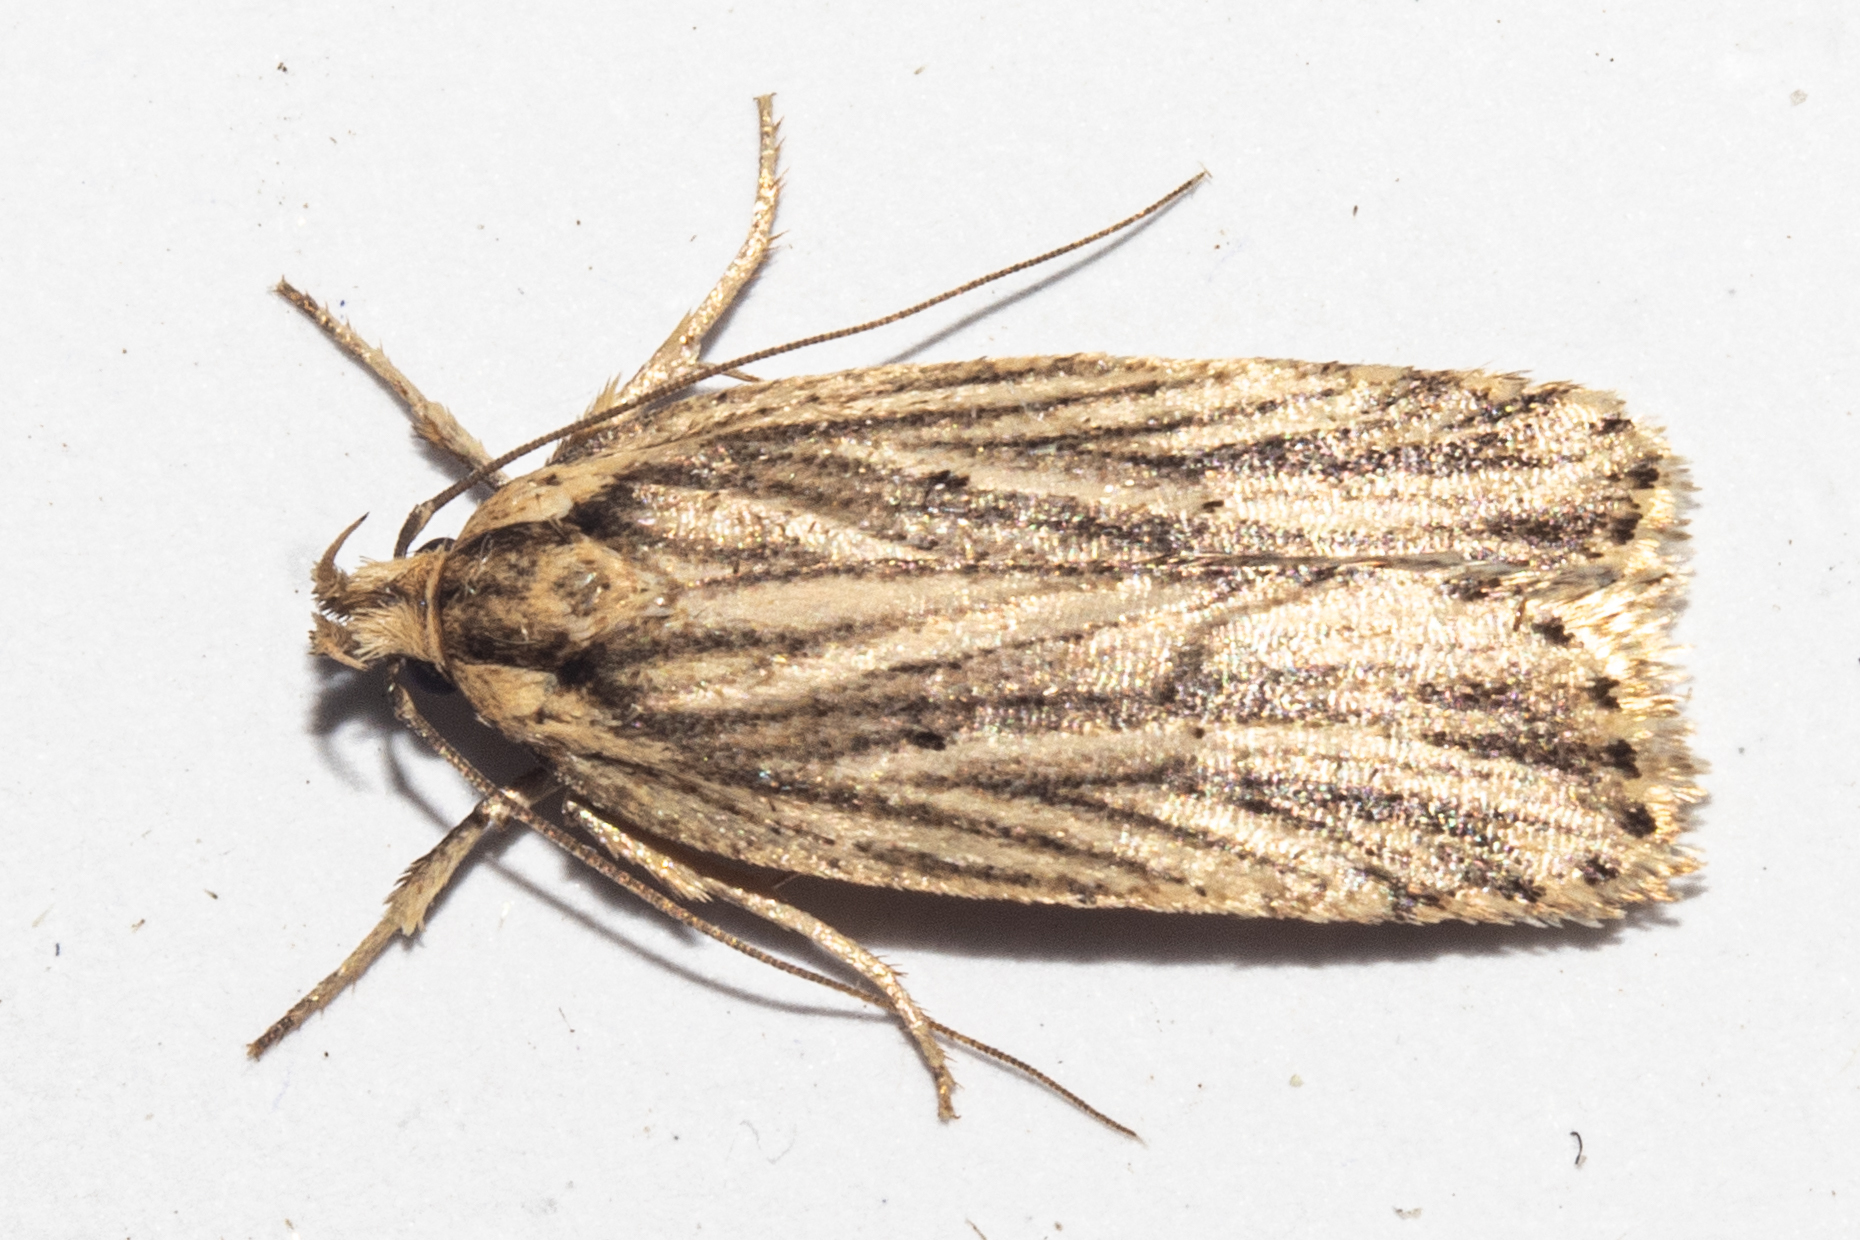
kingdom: Animalia
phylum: Arthropoda
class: Insecta
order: Lepidoptera
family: Depressariidae
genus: Agonopterix
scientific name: Agonopterix
